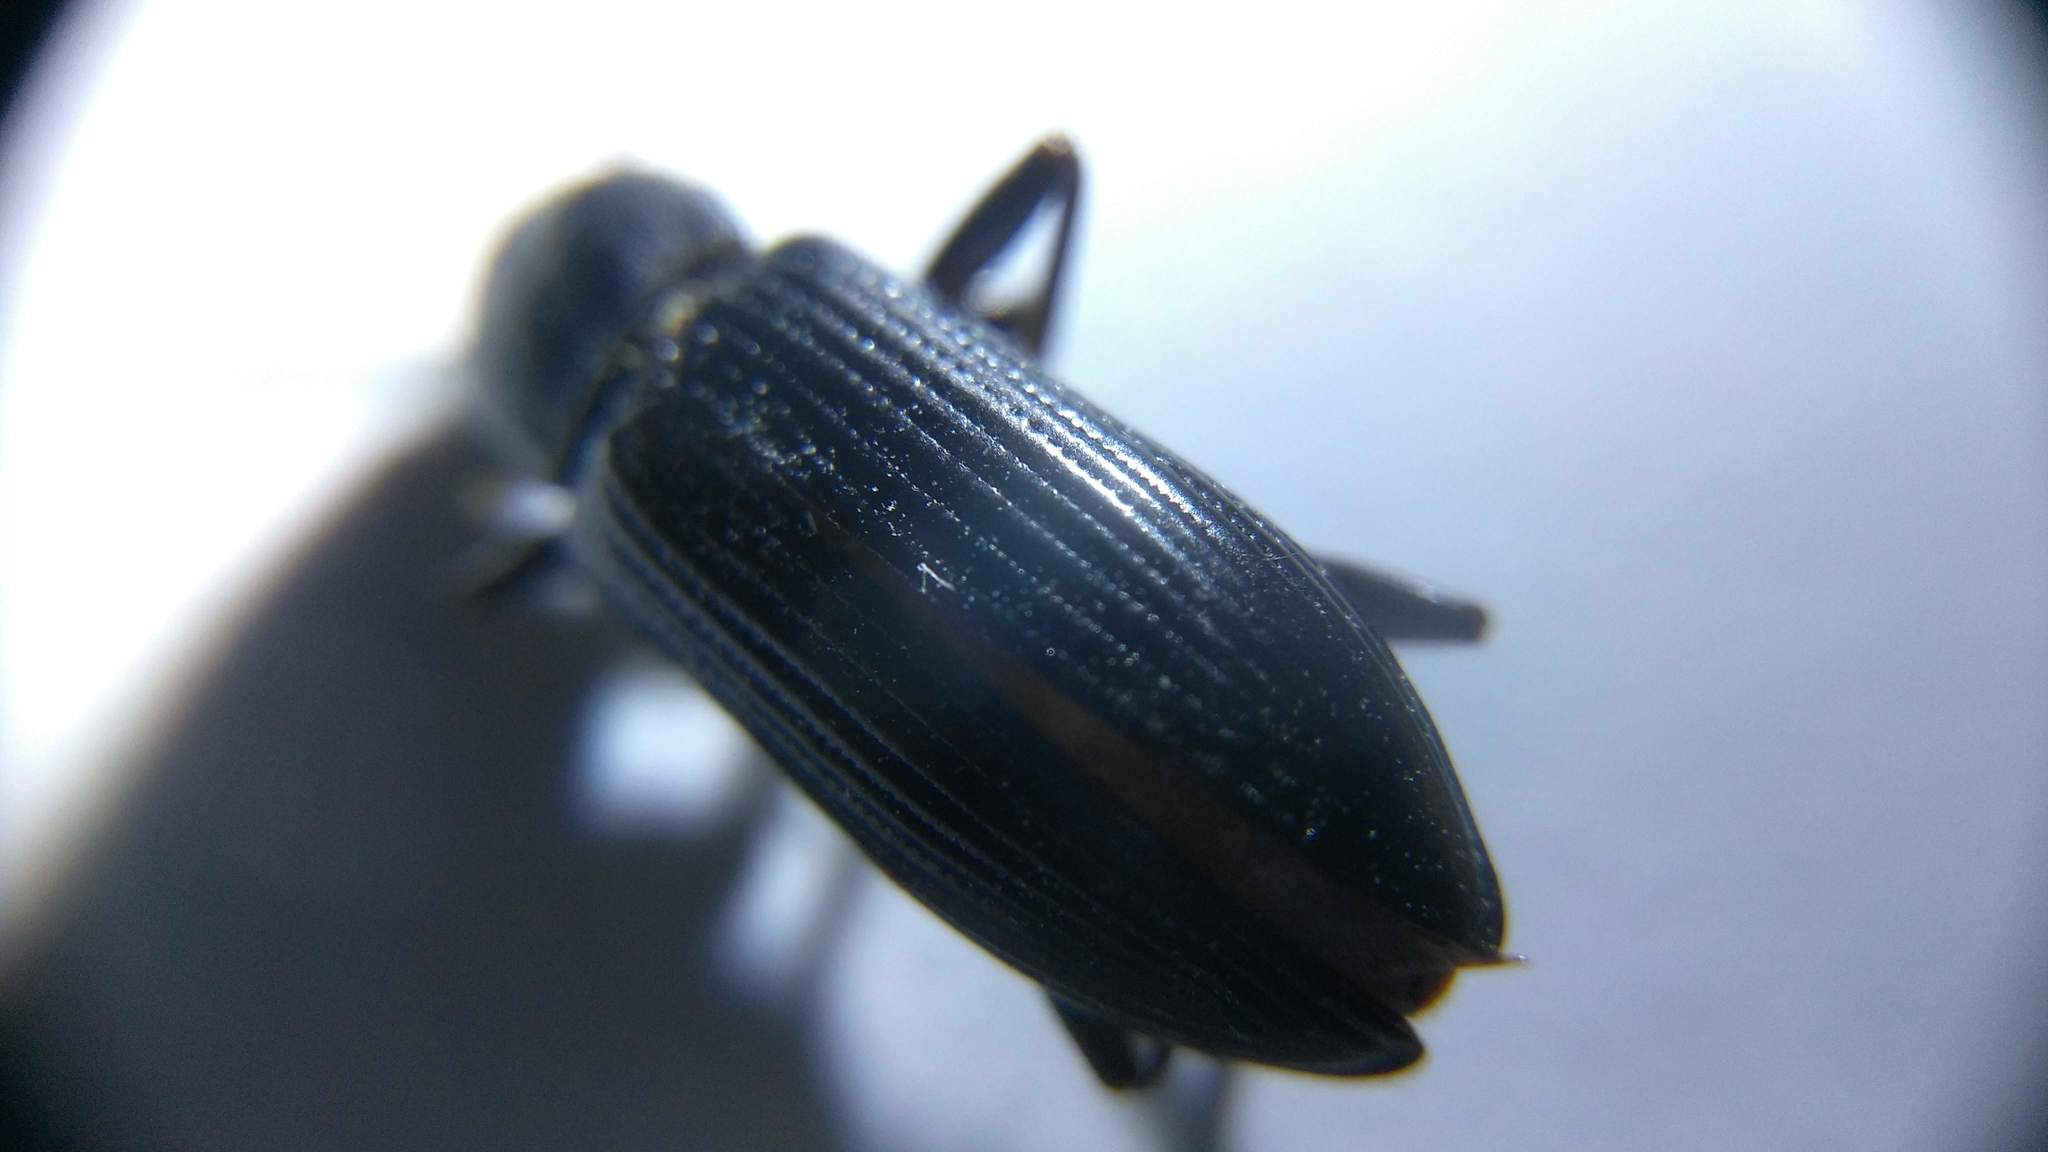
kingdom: Animalia
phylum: Arthropoda
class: Insecta
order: Coleoptera
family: Tenebrionidae
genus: Strongylium
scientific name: Strongylium terminatum
